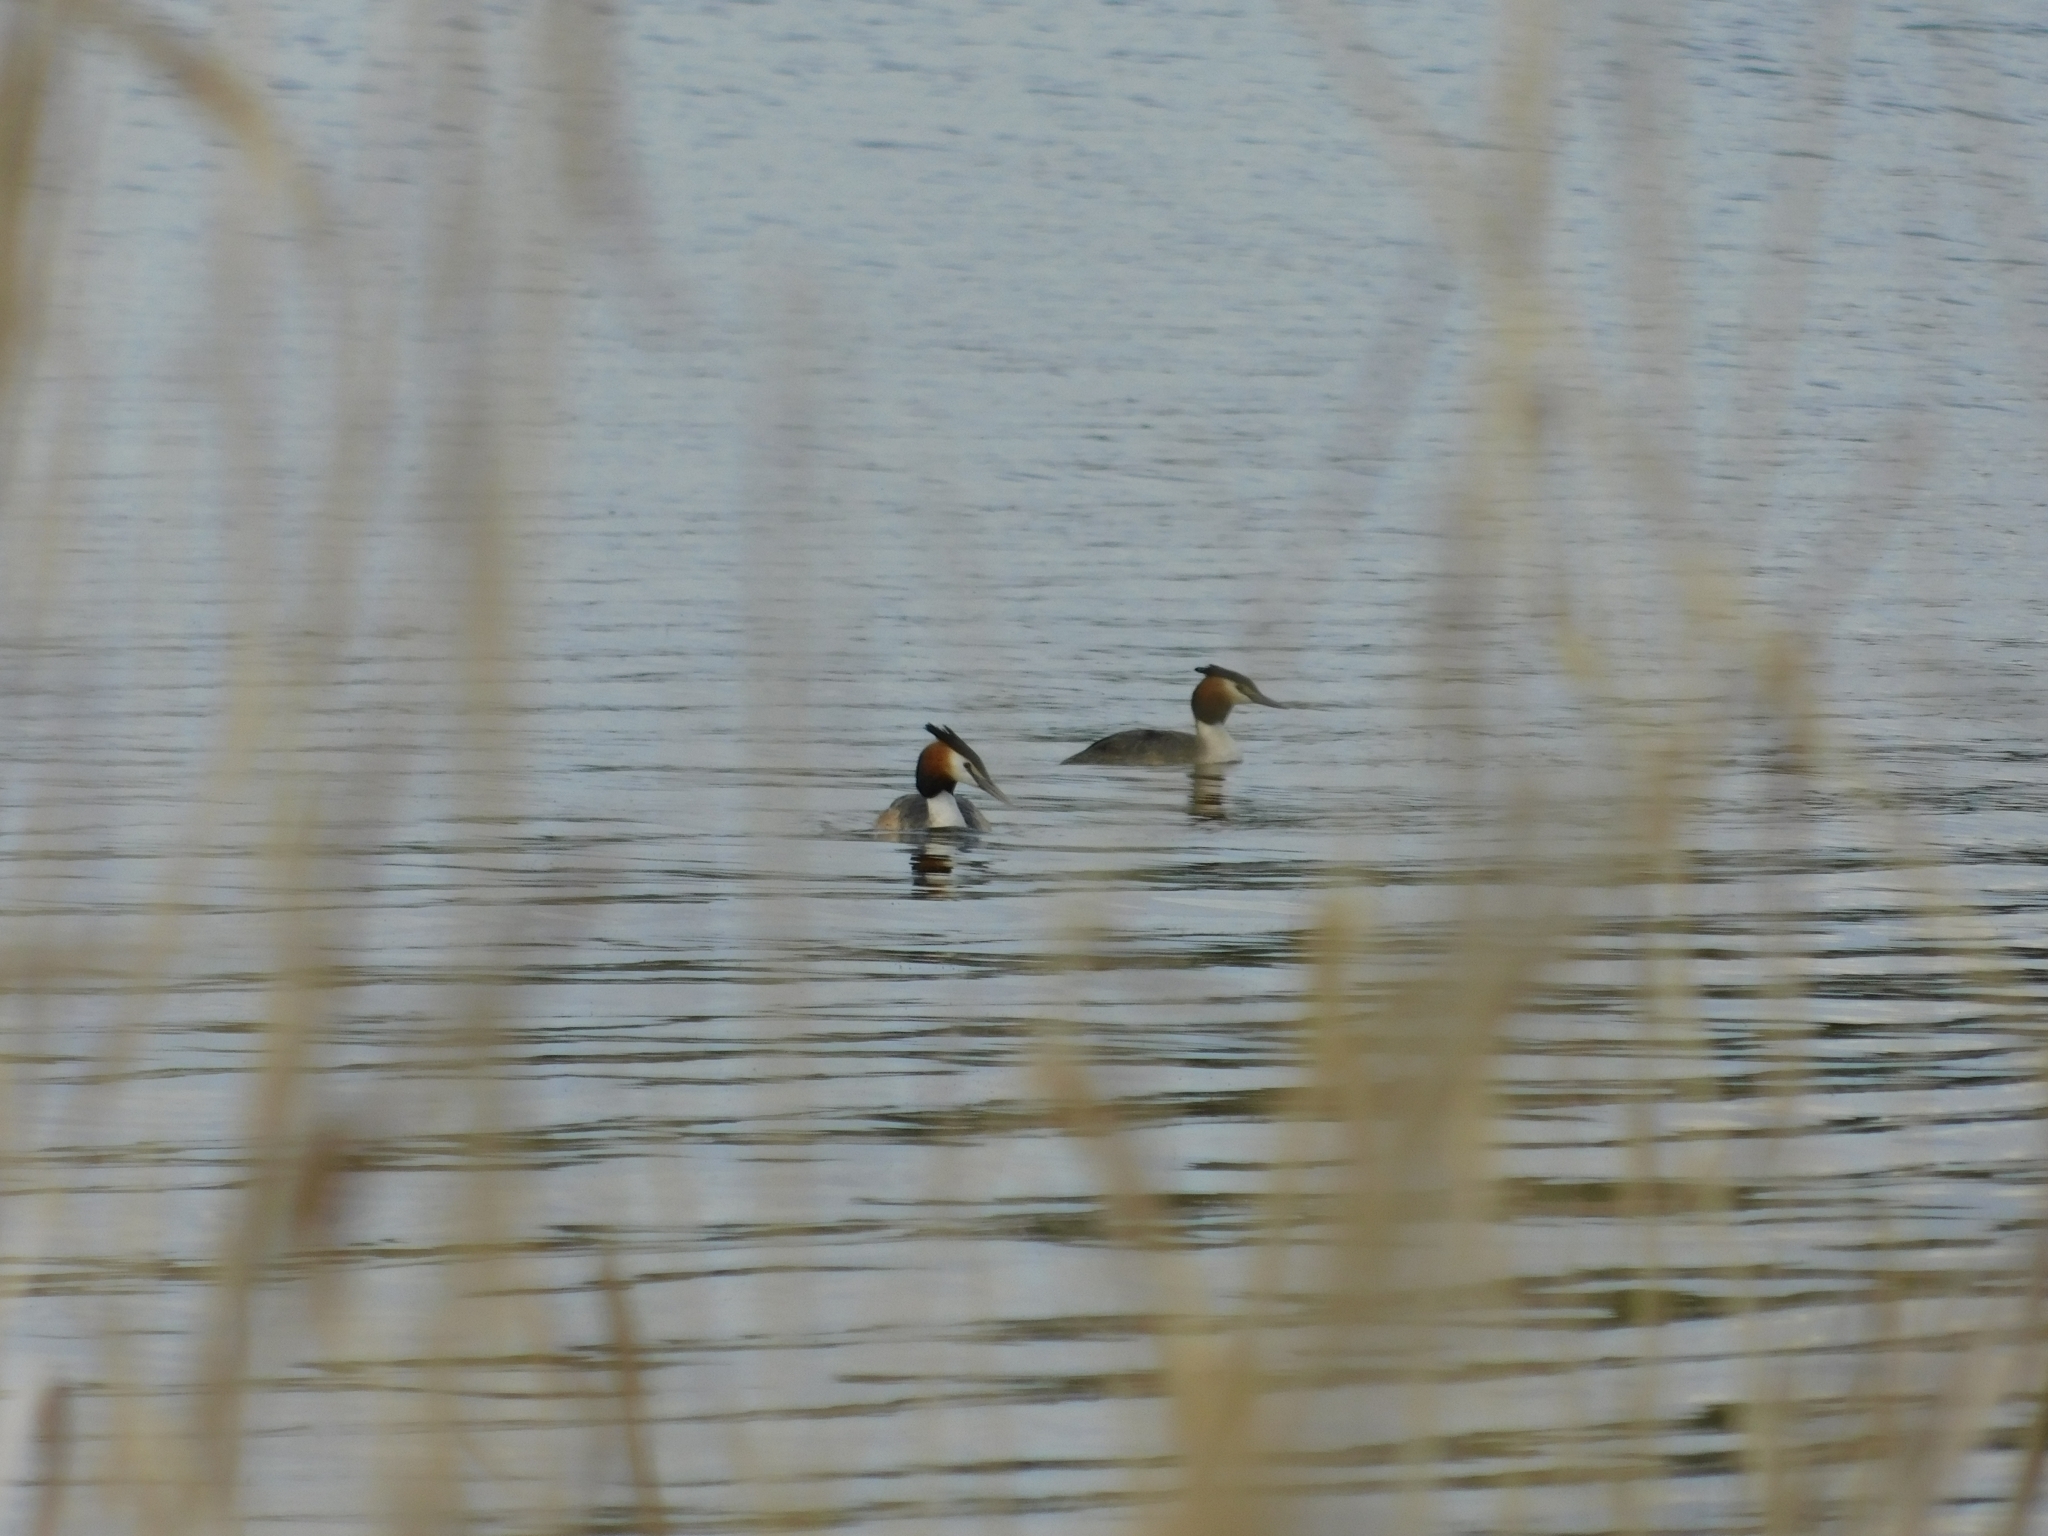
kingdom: Animalia
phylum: Chordata
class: Aves
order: Podicipediformes
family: Podicipedidae
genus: Podiceps
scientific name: Podiceps cristatus
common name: Great crested grebe
